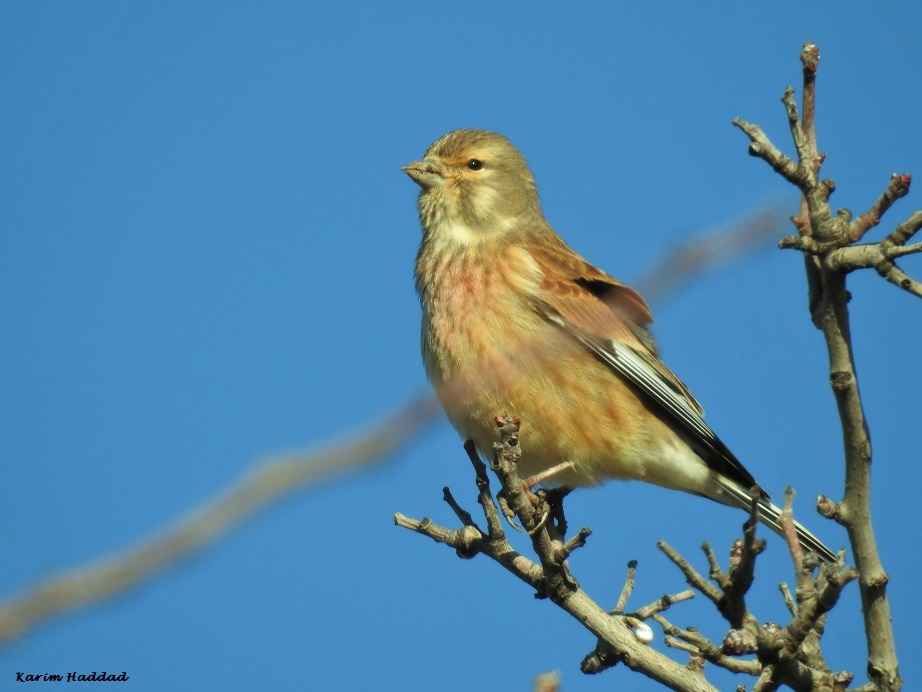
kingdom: Animalia
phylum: Chordata
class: Aves
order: Passeriformes
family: Fringillidae
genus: Linaria
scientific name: Linaria cannabina
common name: Common linnet
